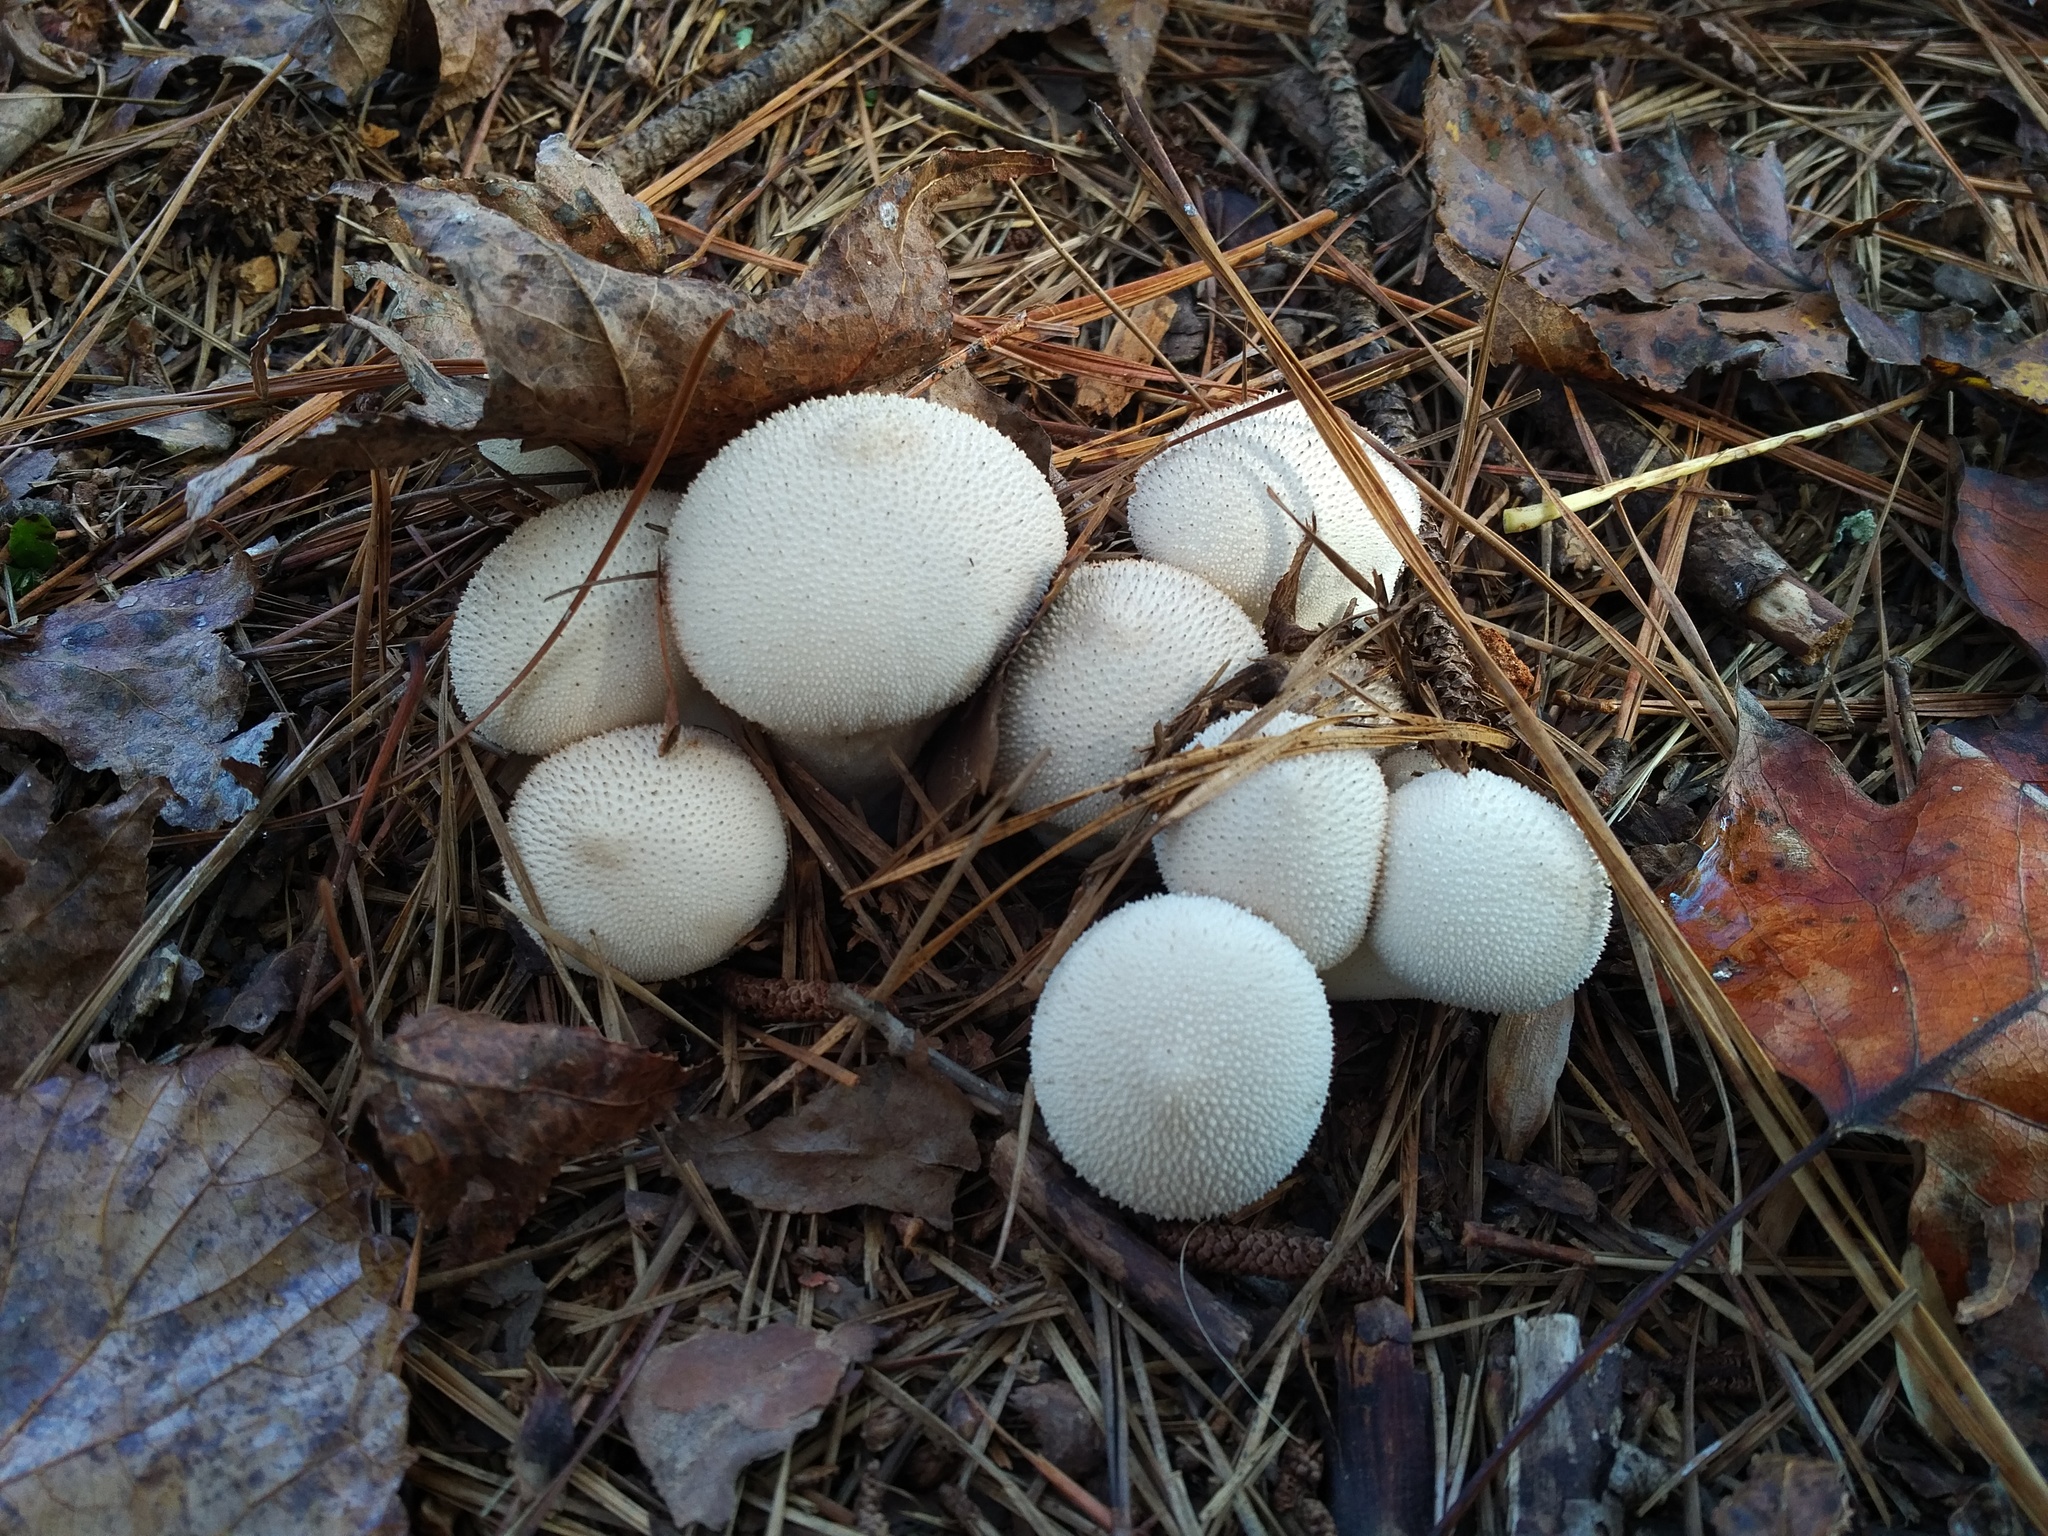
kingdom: Fungi
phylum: Basidiomycota
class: Agaricomycetes
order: Agaricales
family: Lycoperdaceae
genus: Lycoperdon
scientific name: Lycoperdon perlatum
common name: Common puffball
